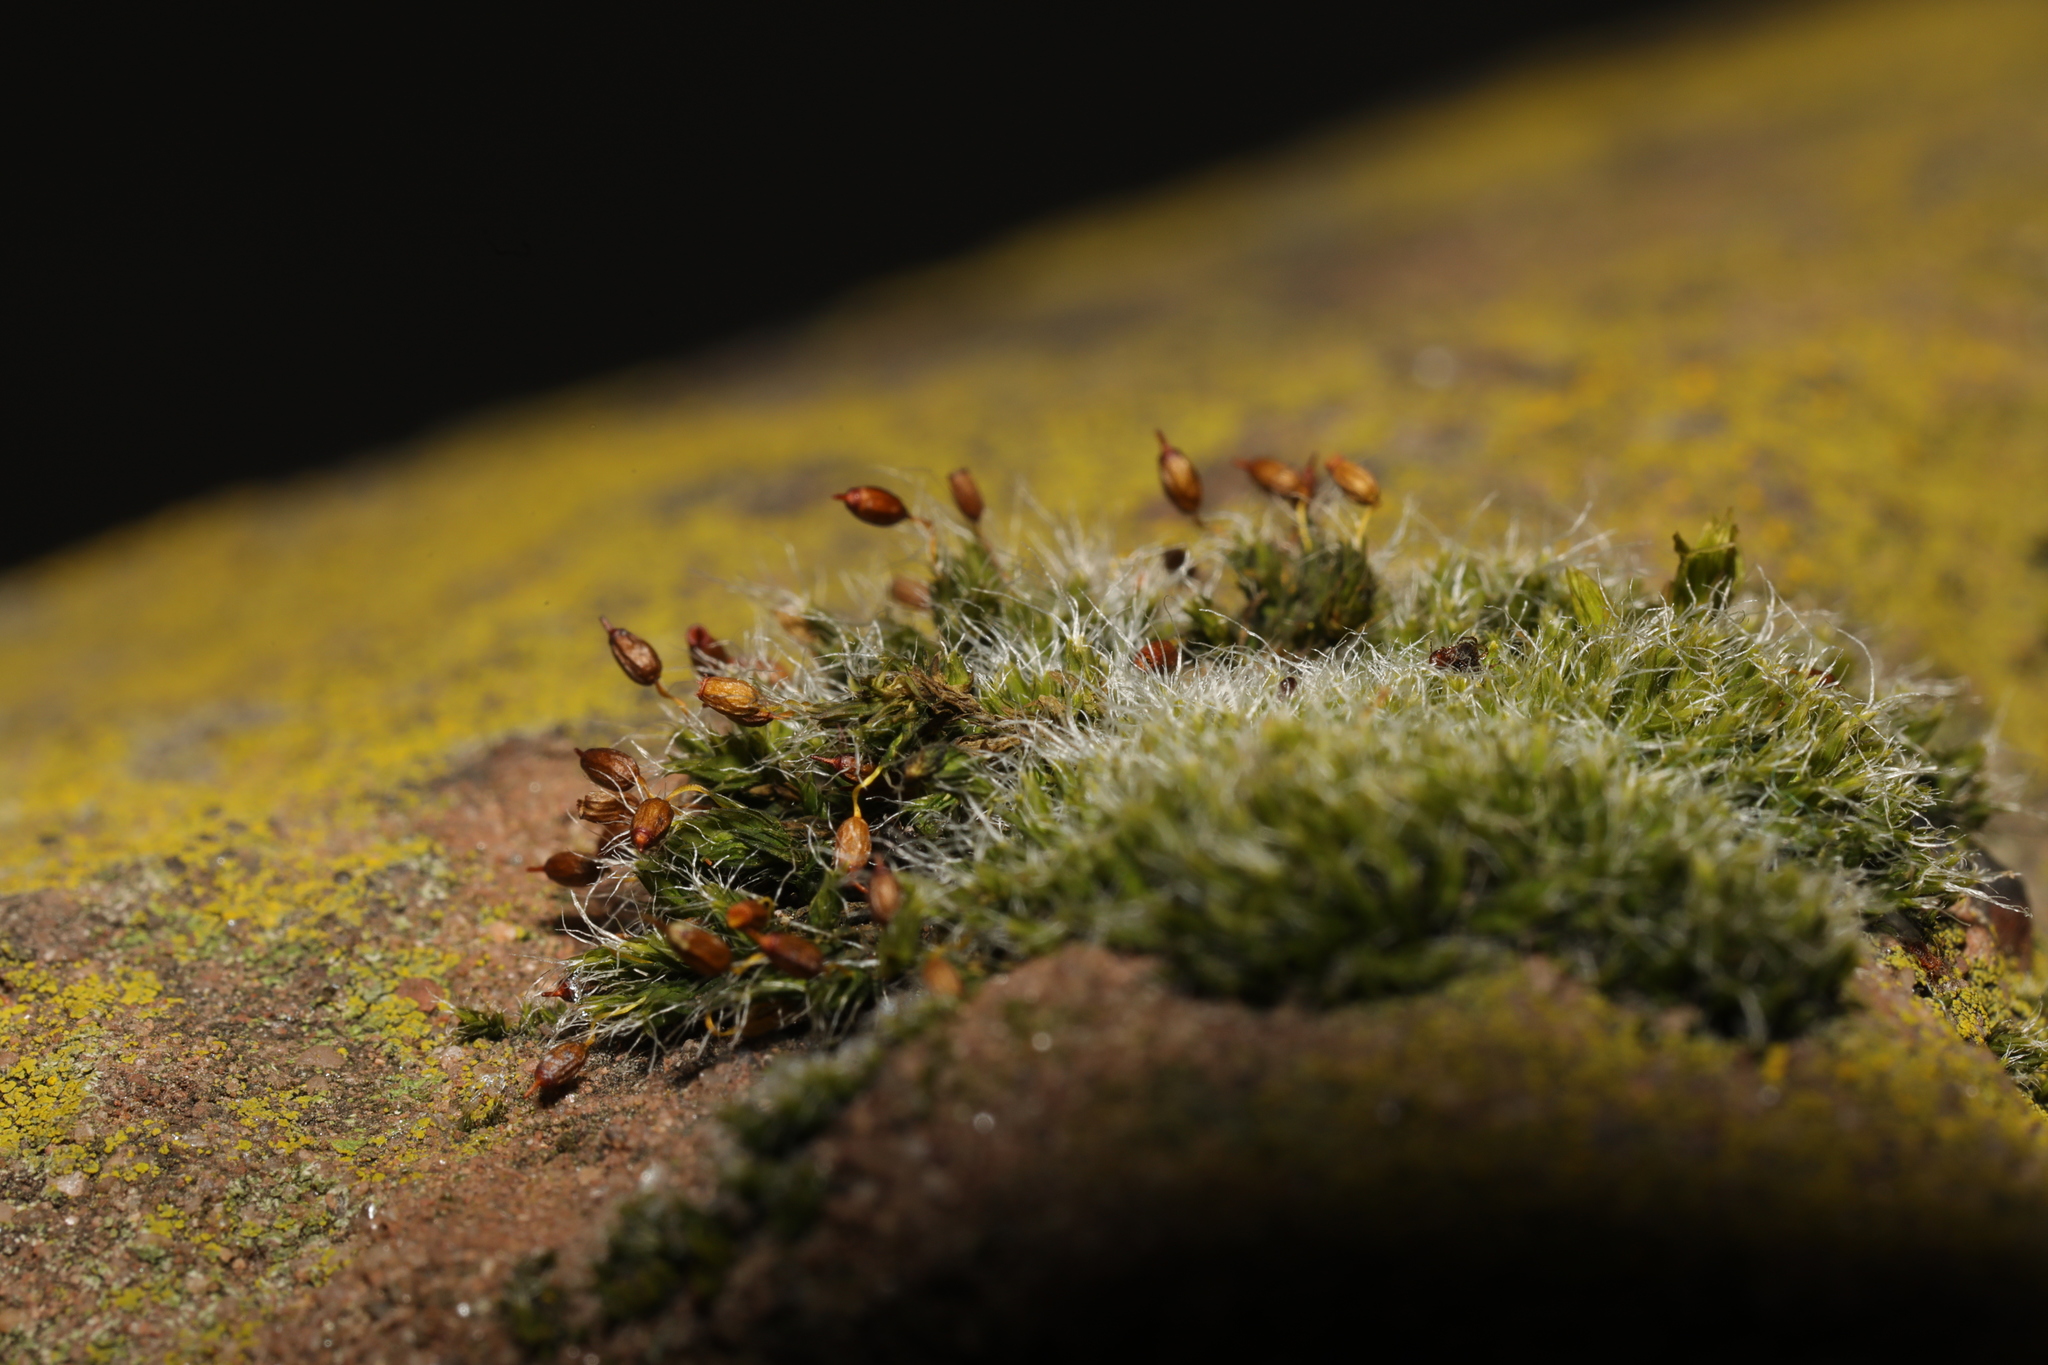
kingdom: Plantae
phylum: Bryophyta
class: Bryopsida
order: Grimmiales
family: Grimmiaceae
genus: Grimmia
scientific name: Grimmia pulvinata
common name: Grey-cushioned grimmia
